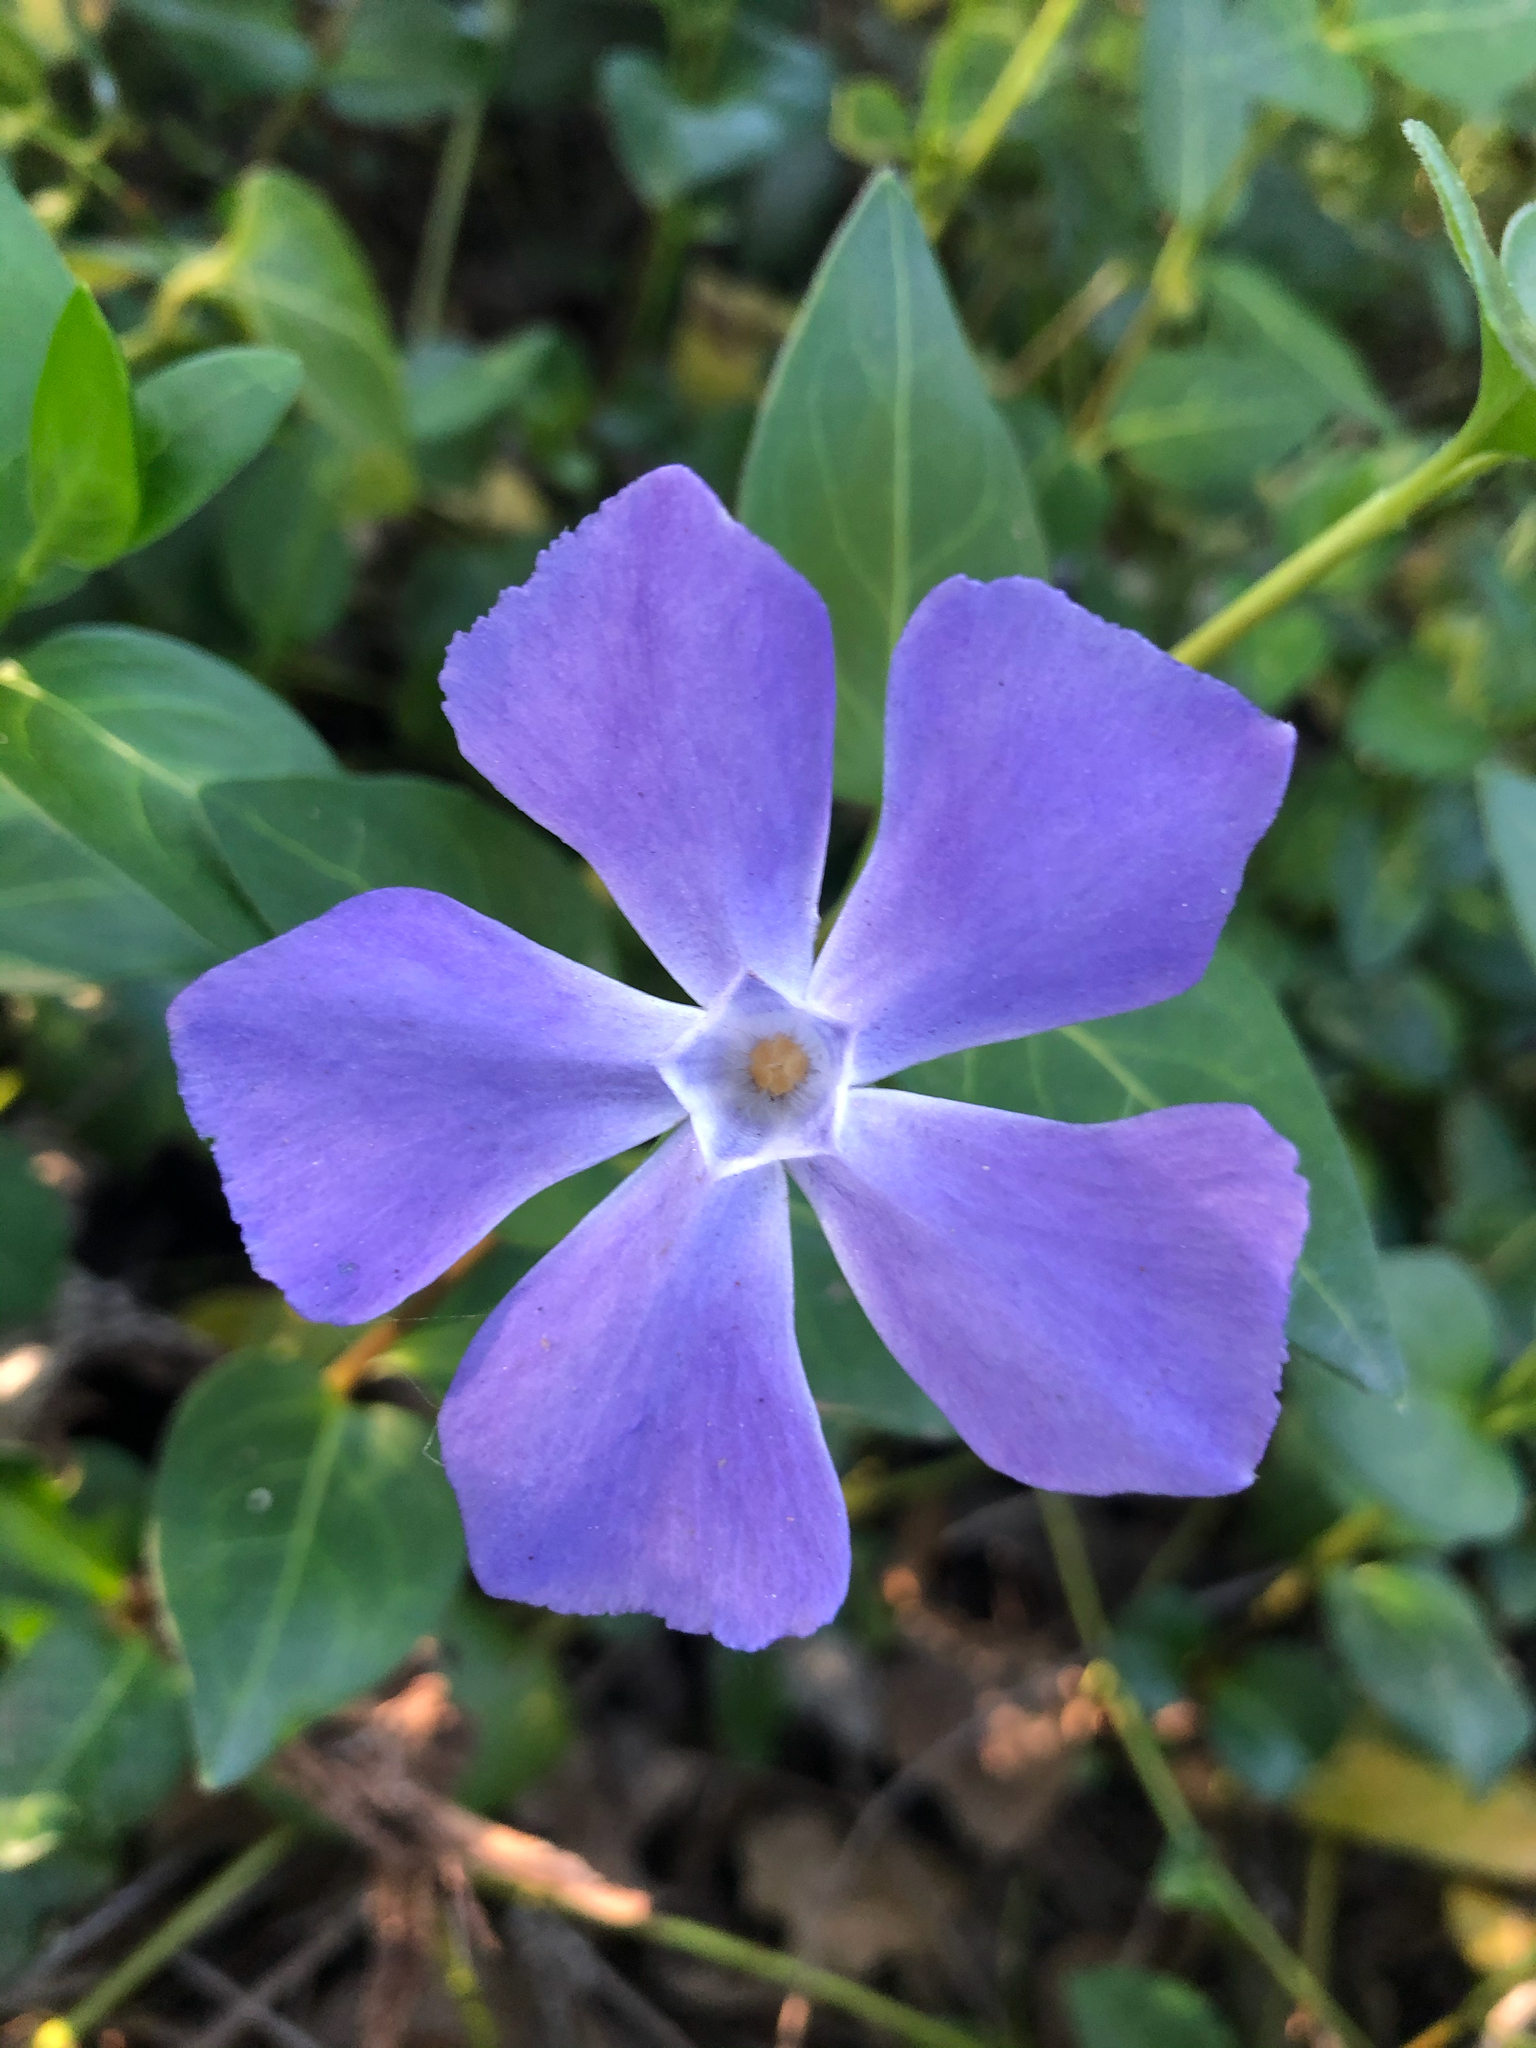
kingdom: Plantae
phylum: Tracheophyta
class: Magnoliopsida
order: Gentianales
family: Apocynaceae
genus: Vinca
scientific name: Vinca major
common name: Greater periwinkle
